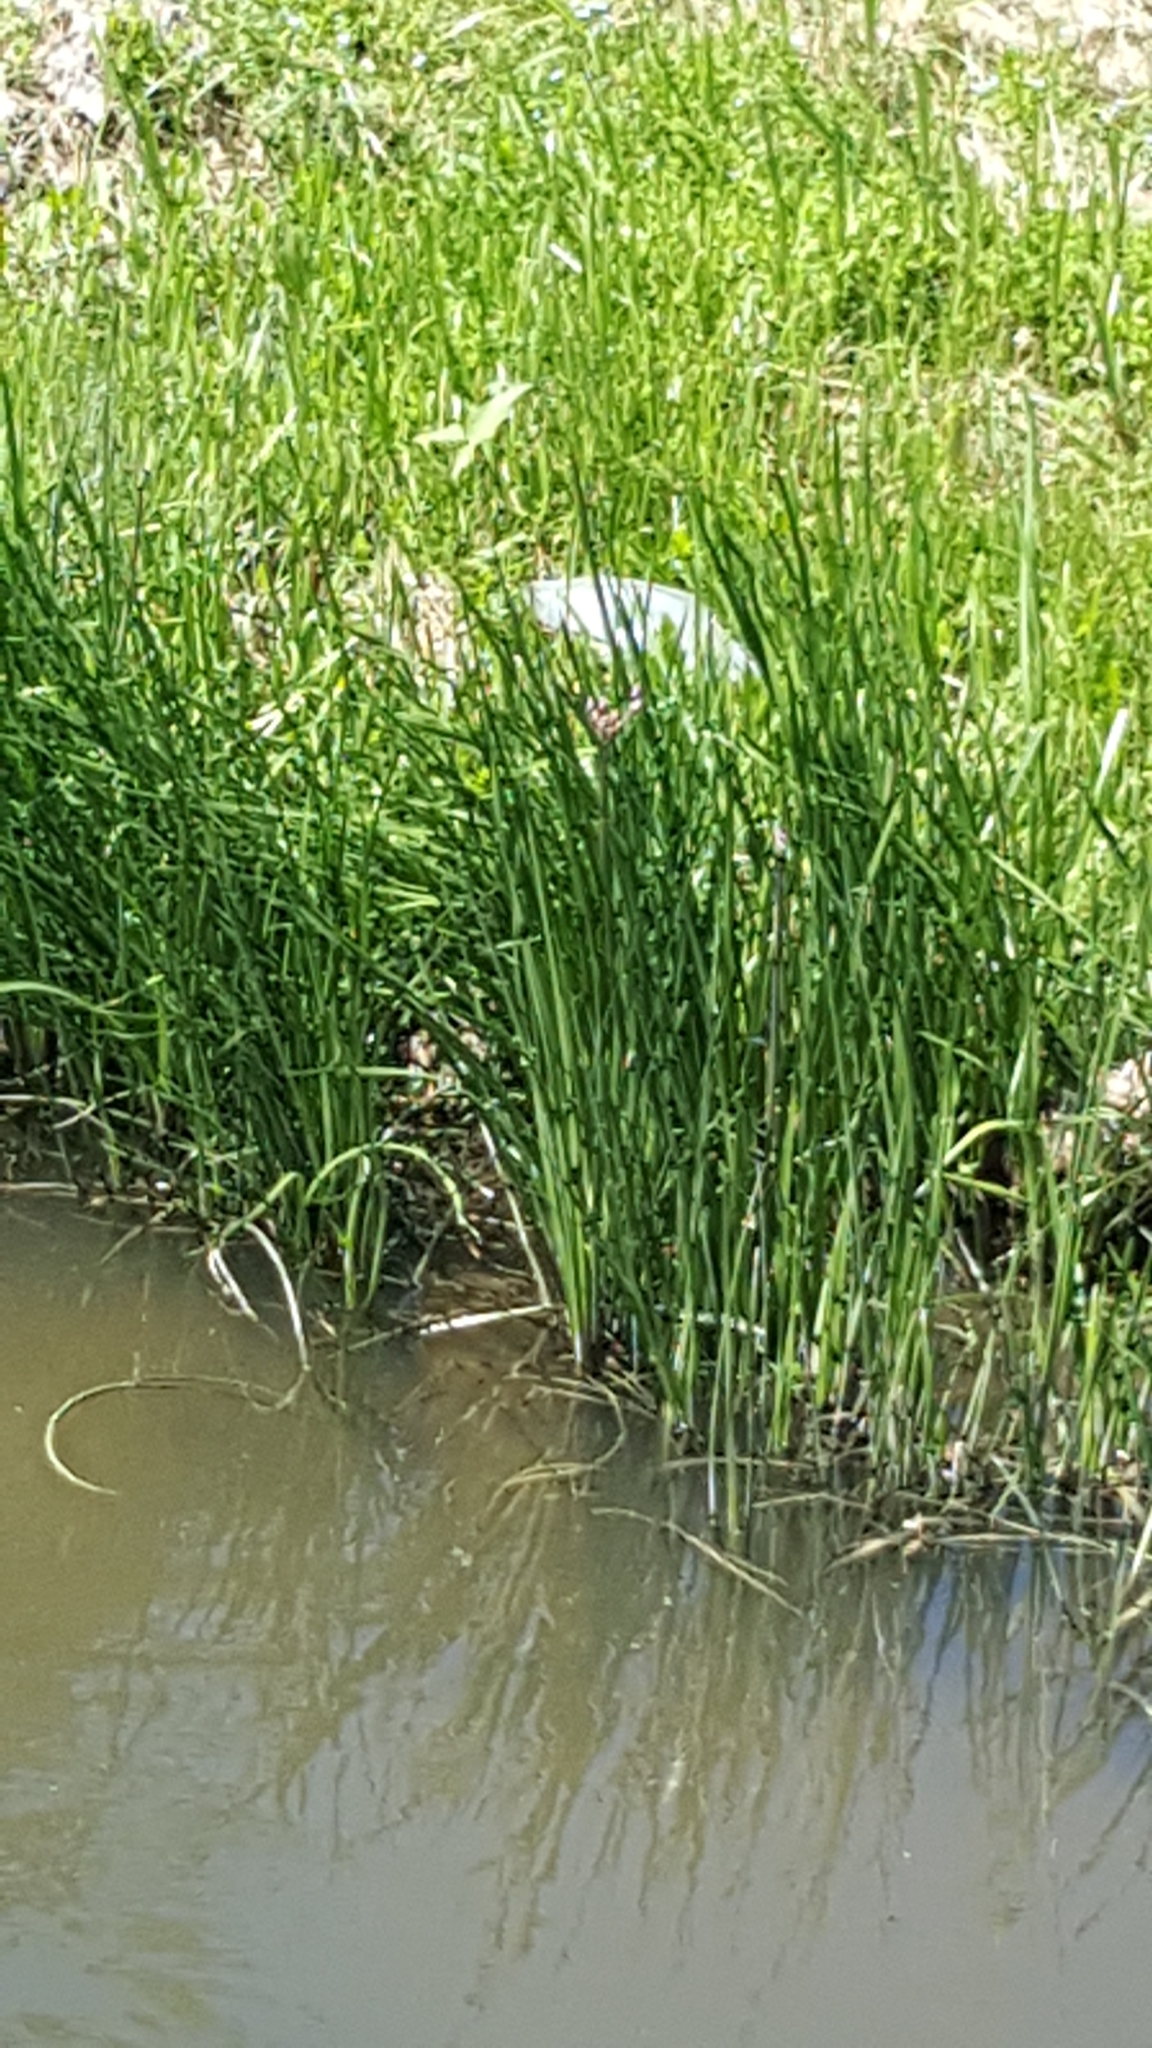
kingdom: Plantae
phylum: Tracheophyta
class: Liliopsida
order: Alismatales
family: Butomaceae
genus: Butomus
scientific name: Butomus umbellatus
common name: Flowering-rush
